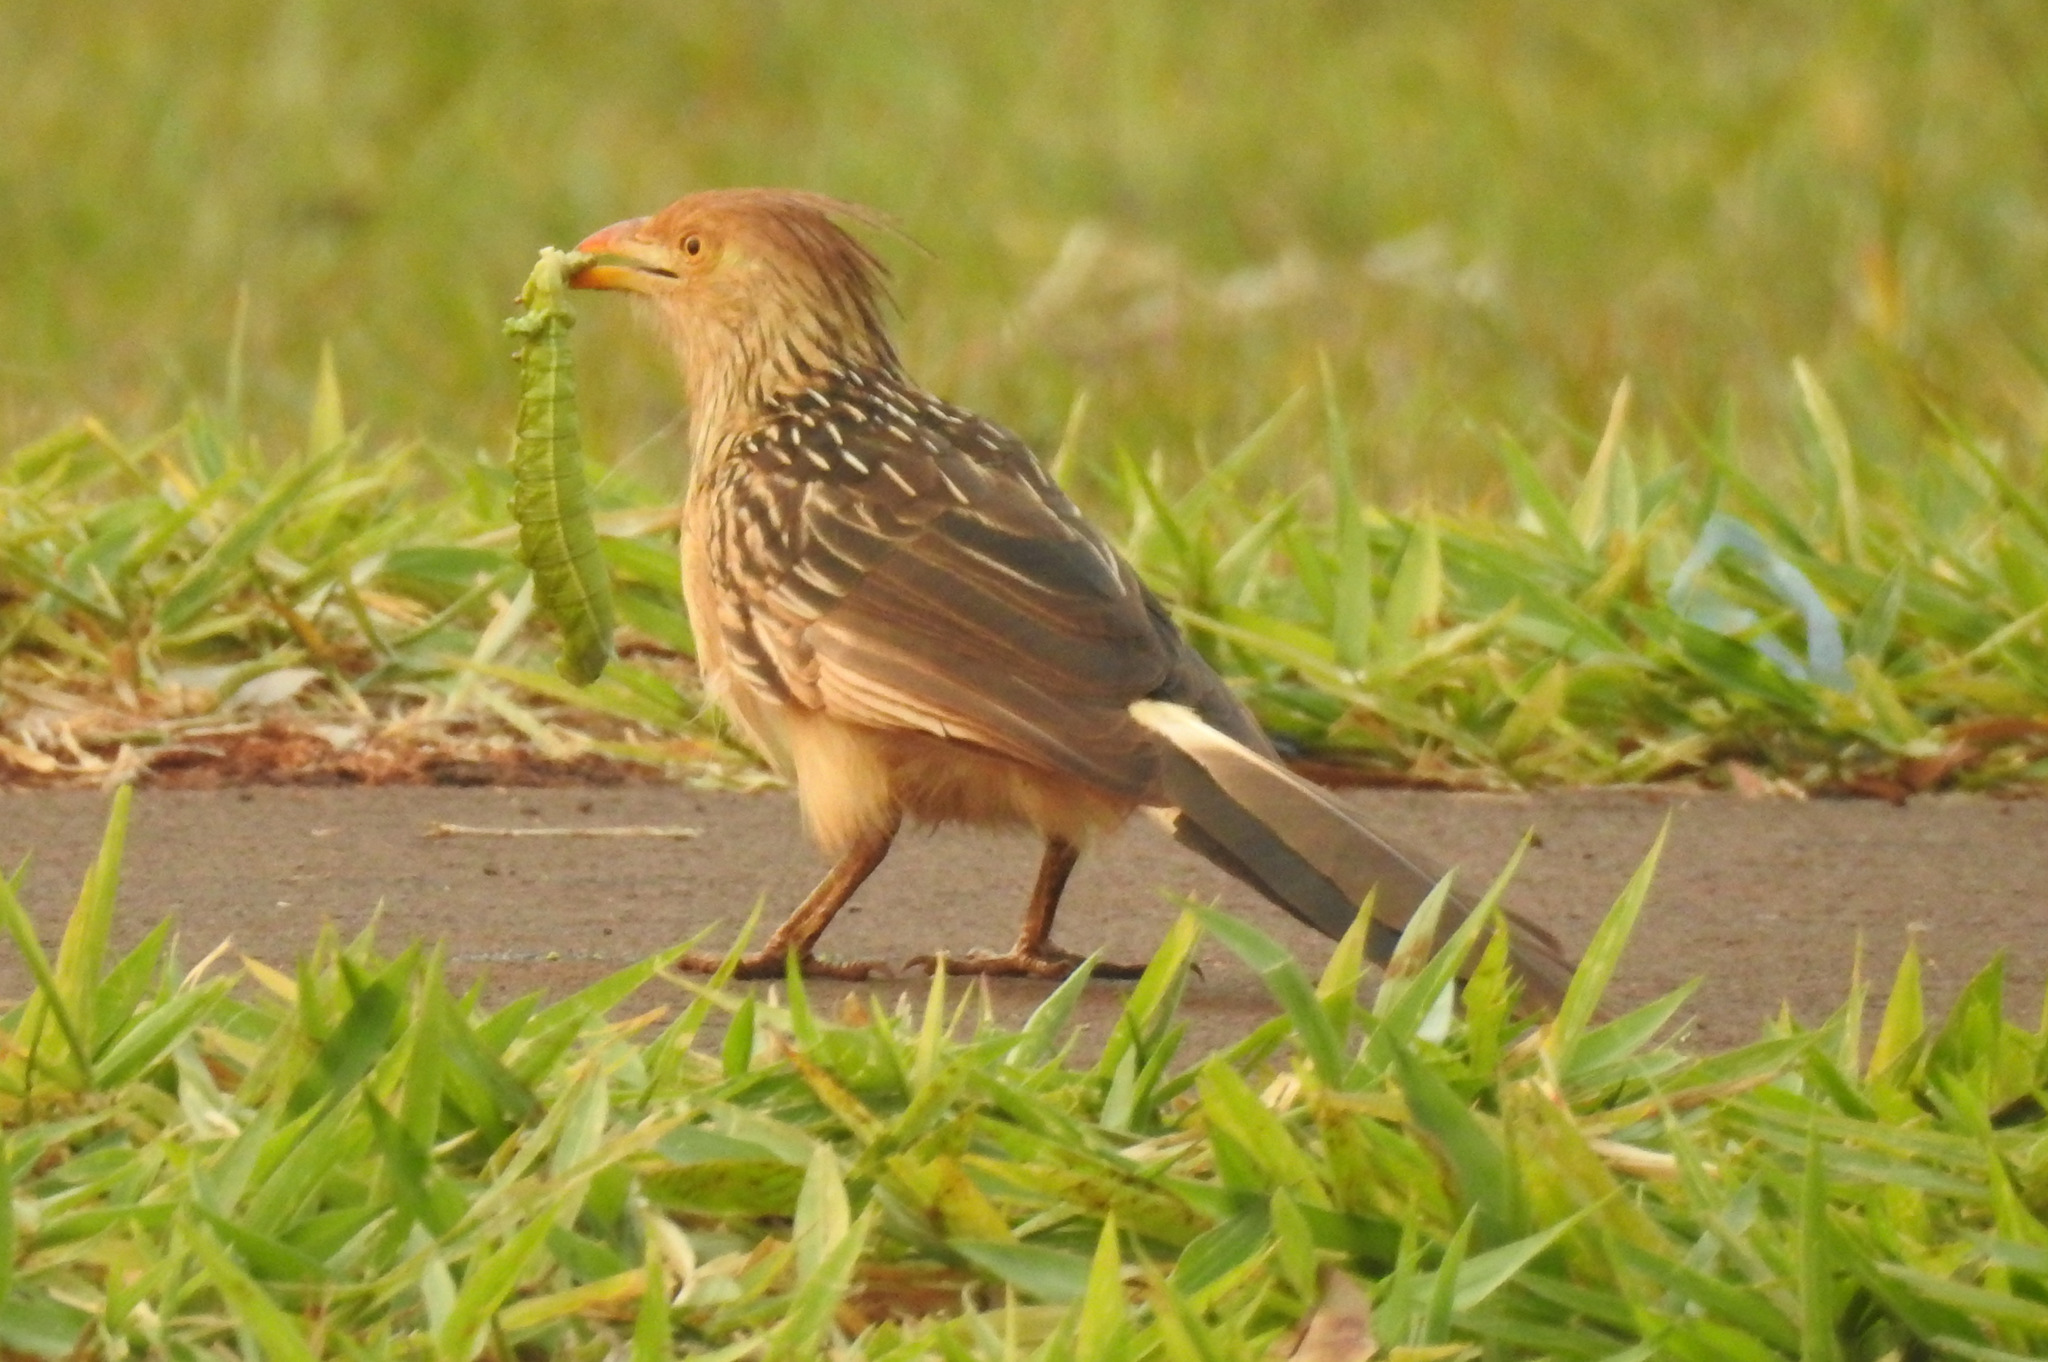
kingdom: Animalia
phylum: Chordata
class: Aves
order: Cuculiformes
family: Cuculidae
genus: Guira
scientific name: Guira guira
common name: Guira cuckoo
